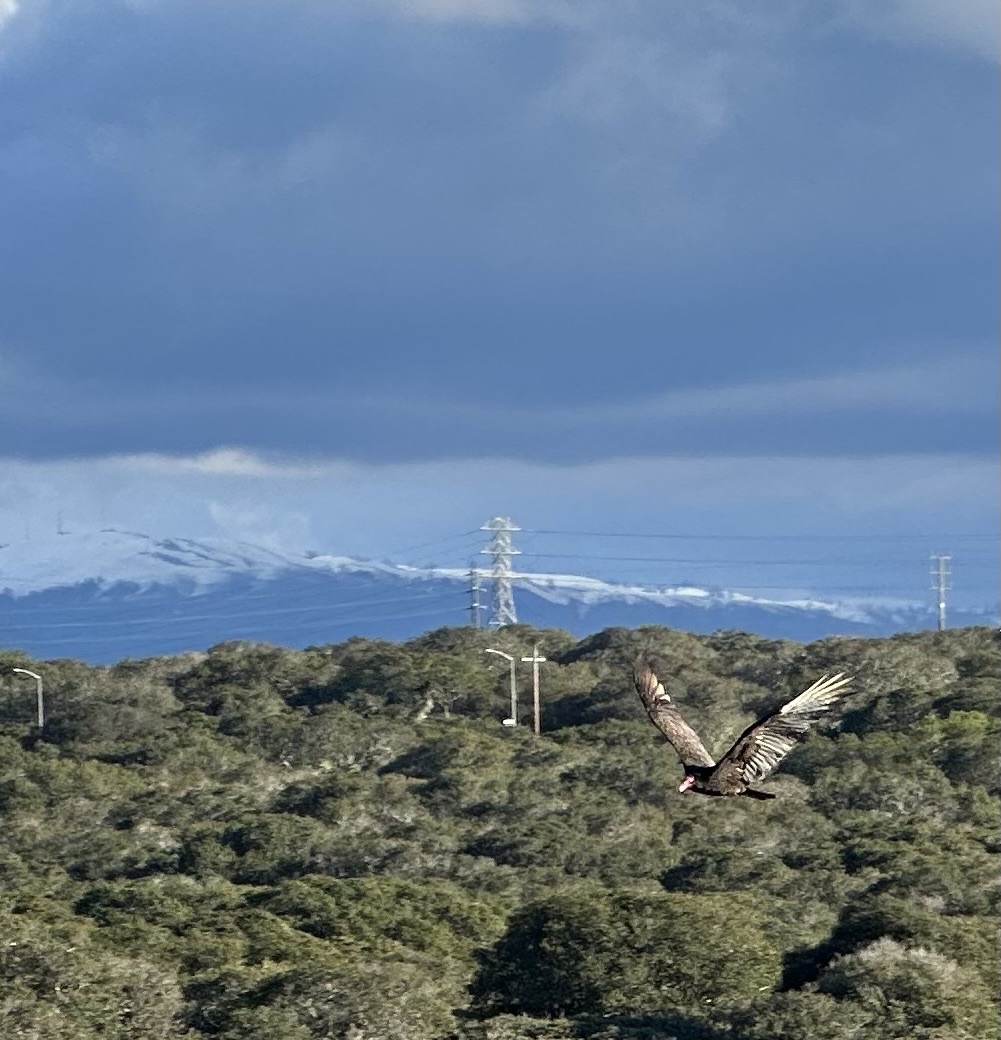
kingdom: Animalia
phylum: Chordata
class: Aves
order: Accipitriformes
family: Cathartidae
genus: Cathartes
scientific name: Cathartes aura
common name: Turkey vulture
